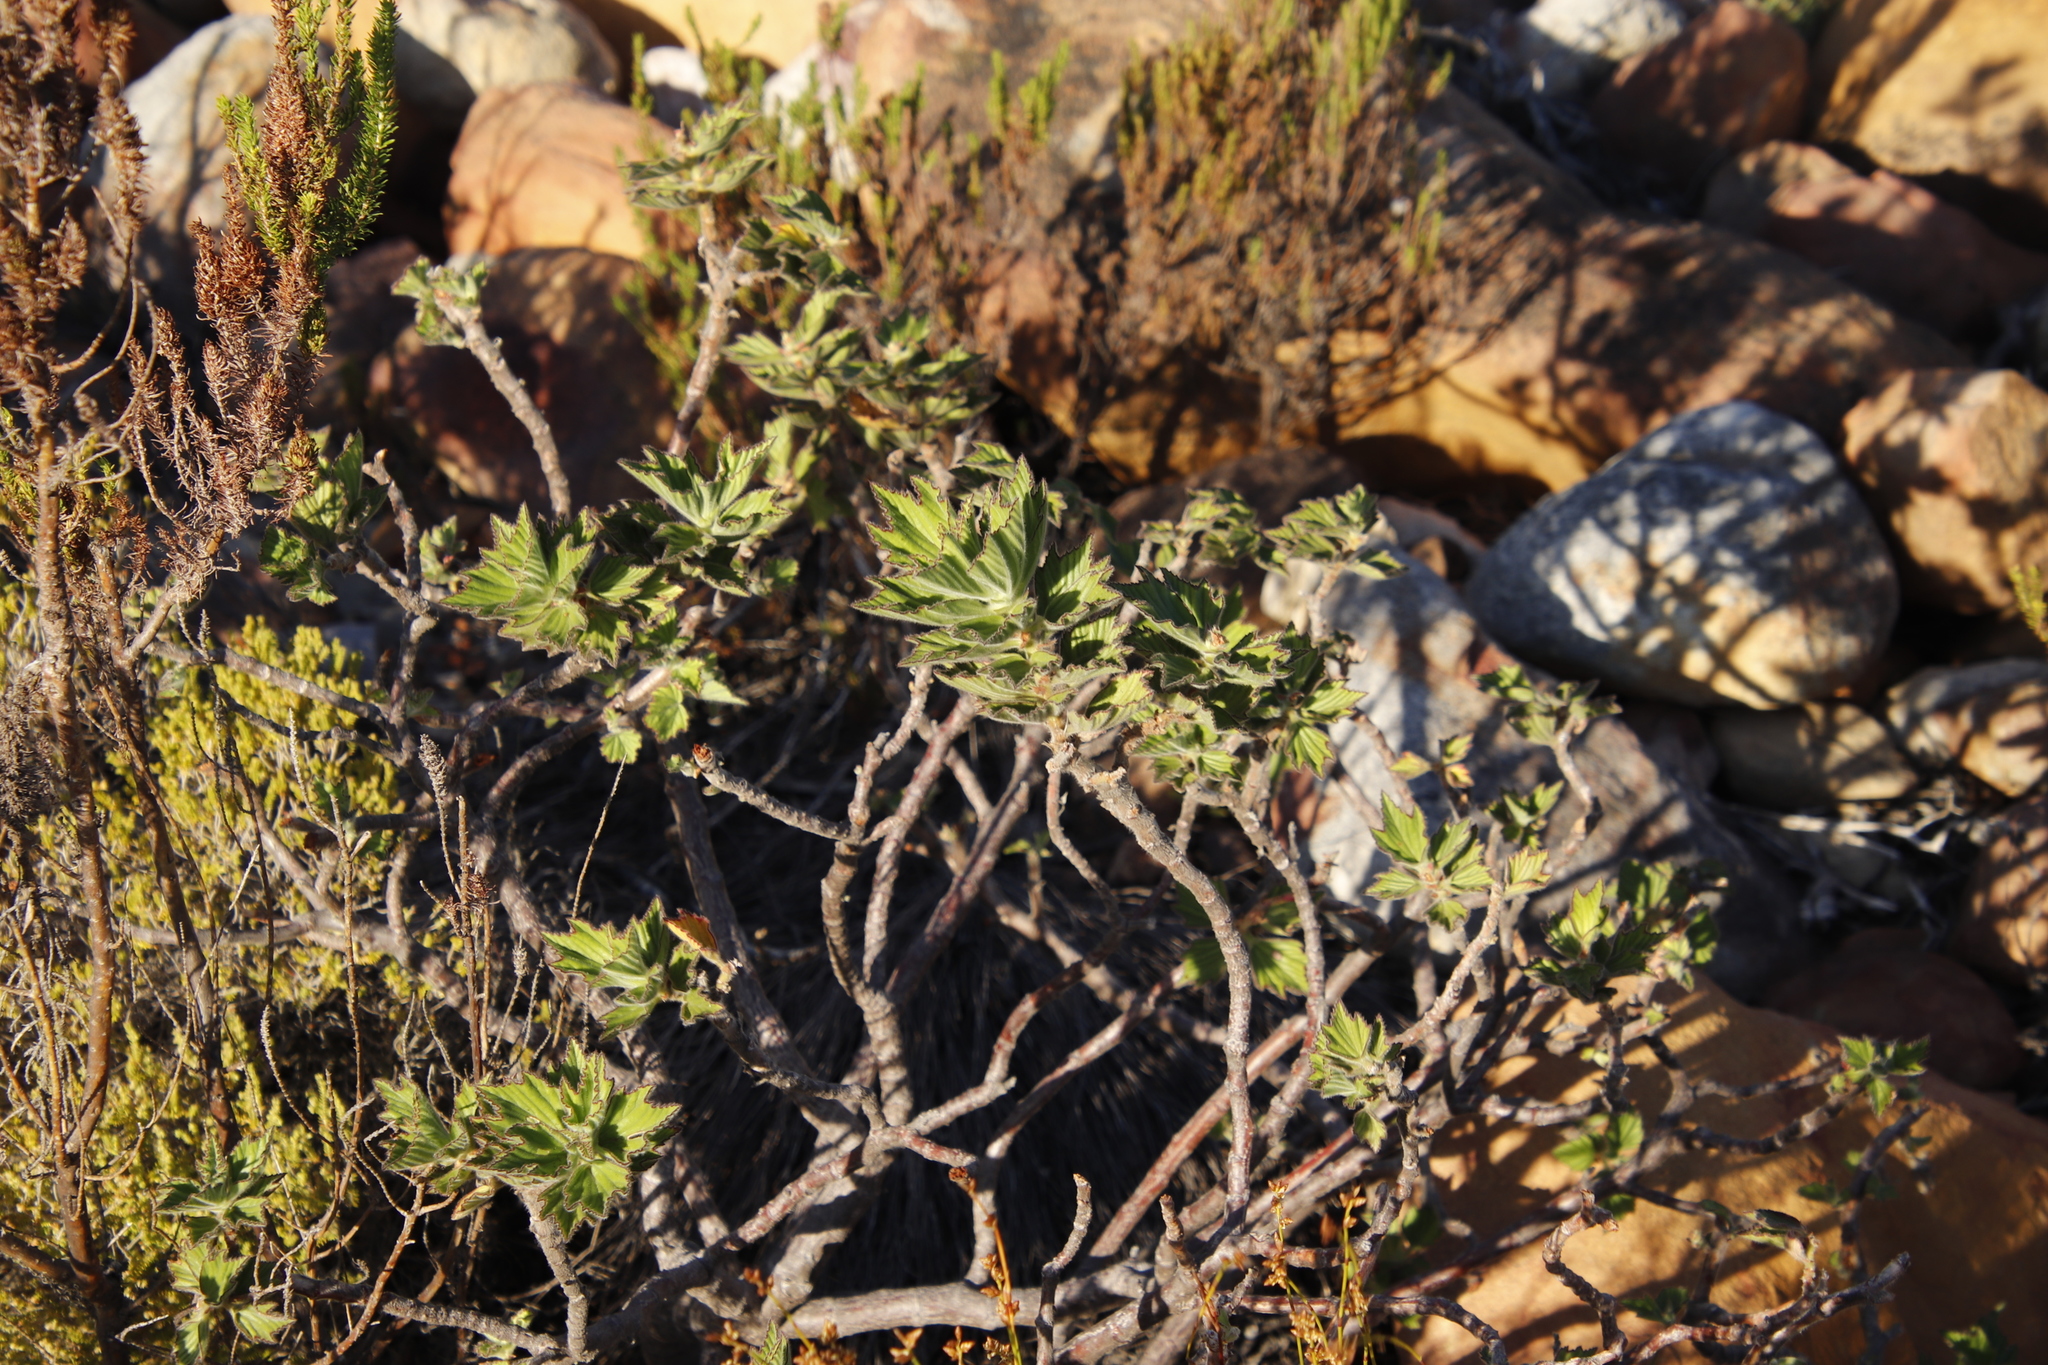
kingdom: Plantae
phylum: Tracheophyta
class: Magnoliopsida
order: Geraniales
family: Geraniaceae
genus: Pelargonium
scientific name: Pelargonium cucullatum
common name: Tree pelargonium
